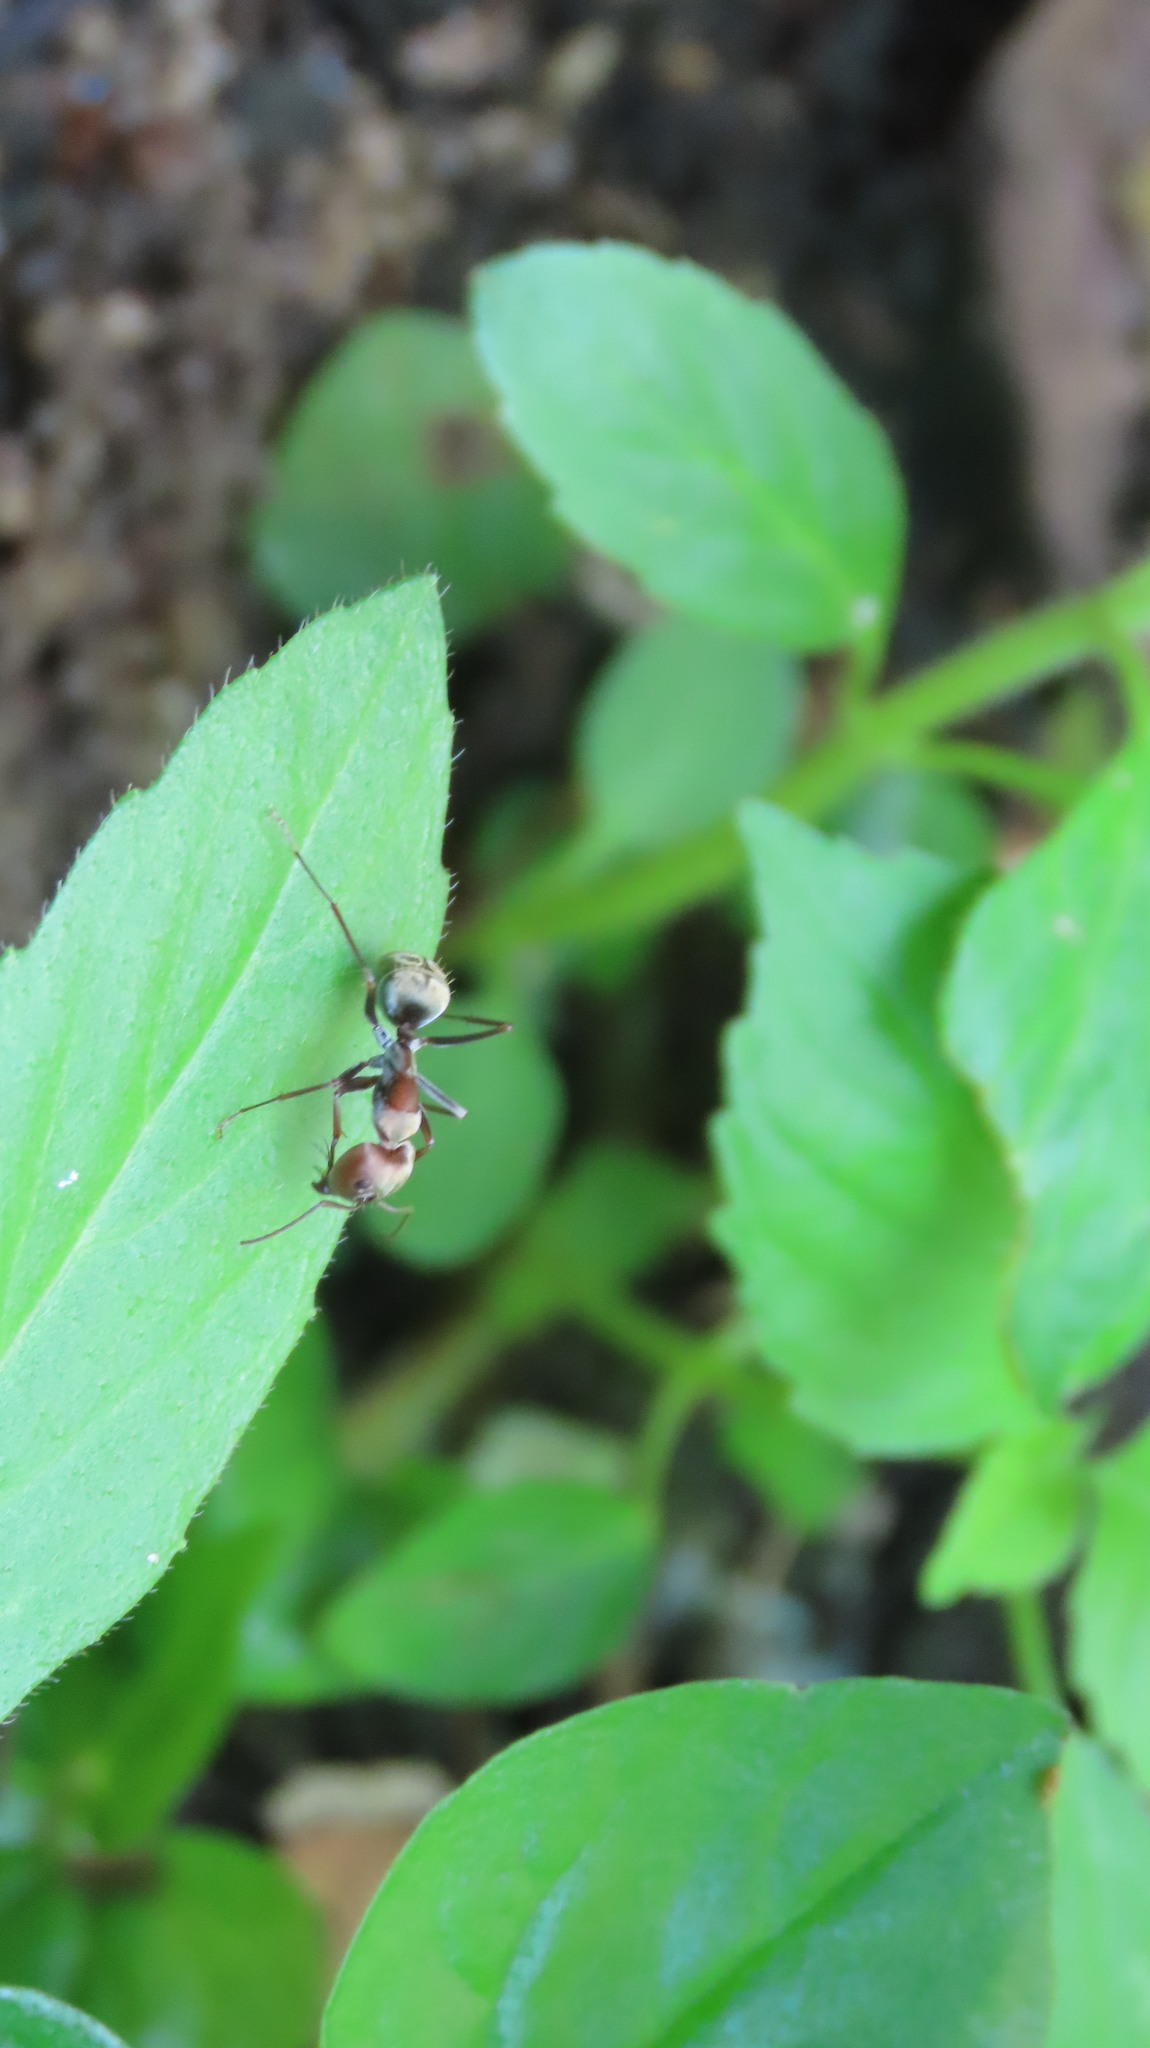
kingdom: Animalia
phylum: Arthropoda
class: Insecta
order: Hymenoptera
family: Formicidae
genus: Camponotus
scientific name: Camponotus rufoglaucus
